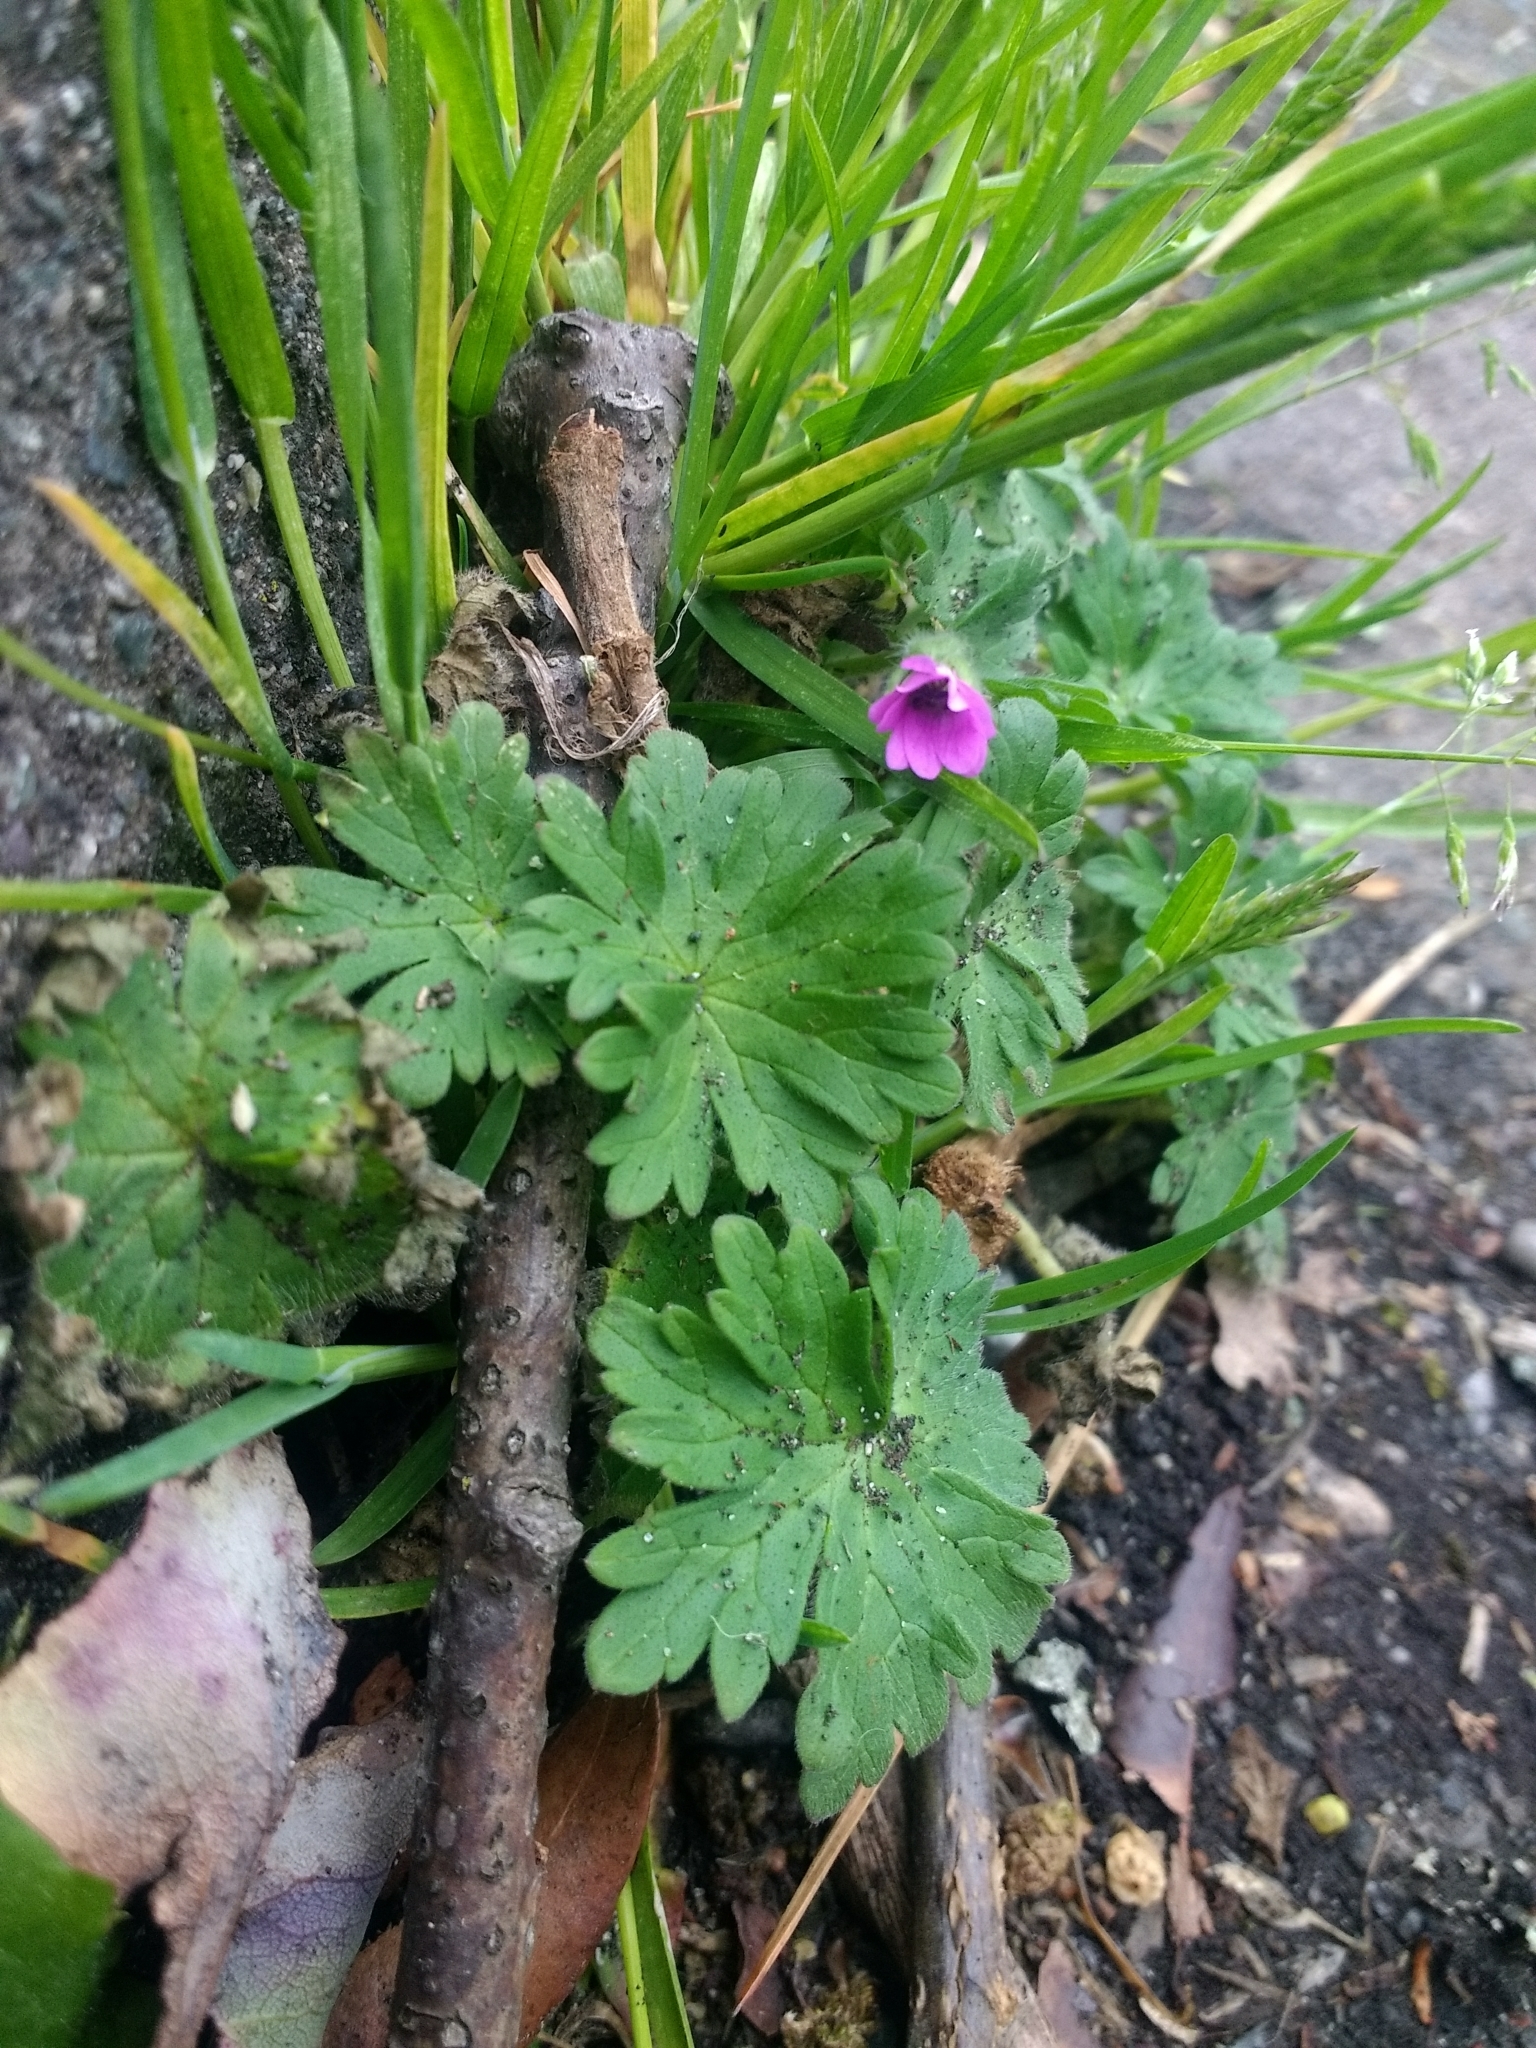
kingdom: Plantae
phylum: Tracheophyta
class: Magnoliopsida
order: Geraniales
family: Geraniaceae
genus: Geranium
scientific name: Geranium molle
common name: Dove's-foot crane's-bill
